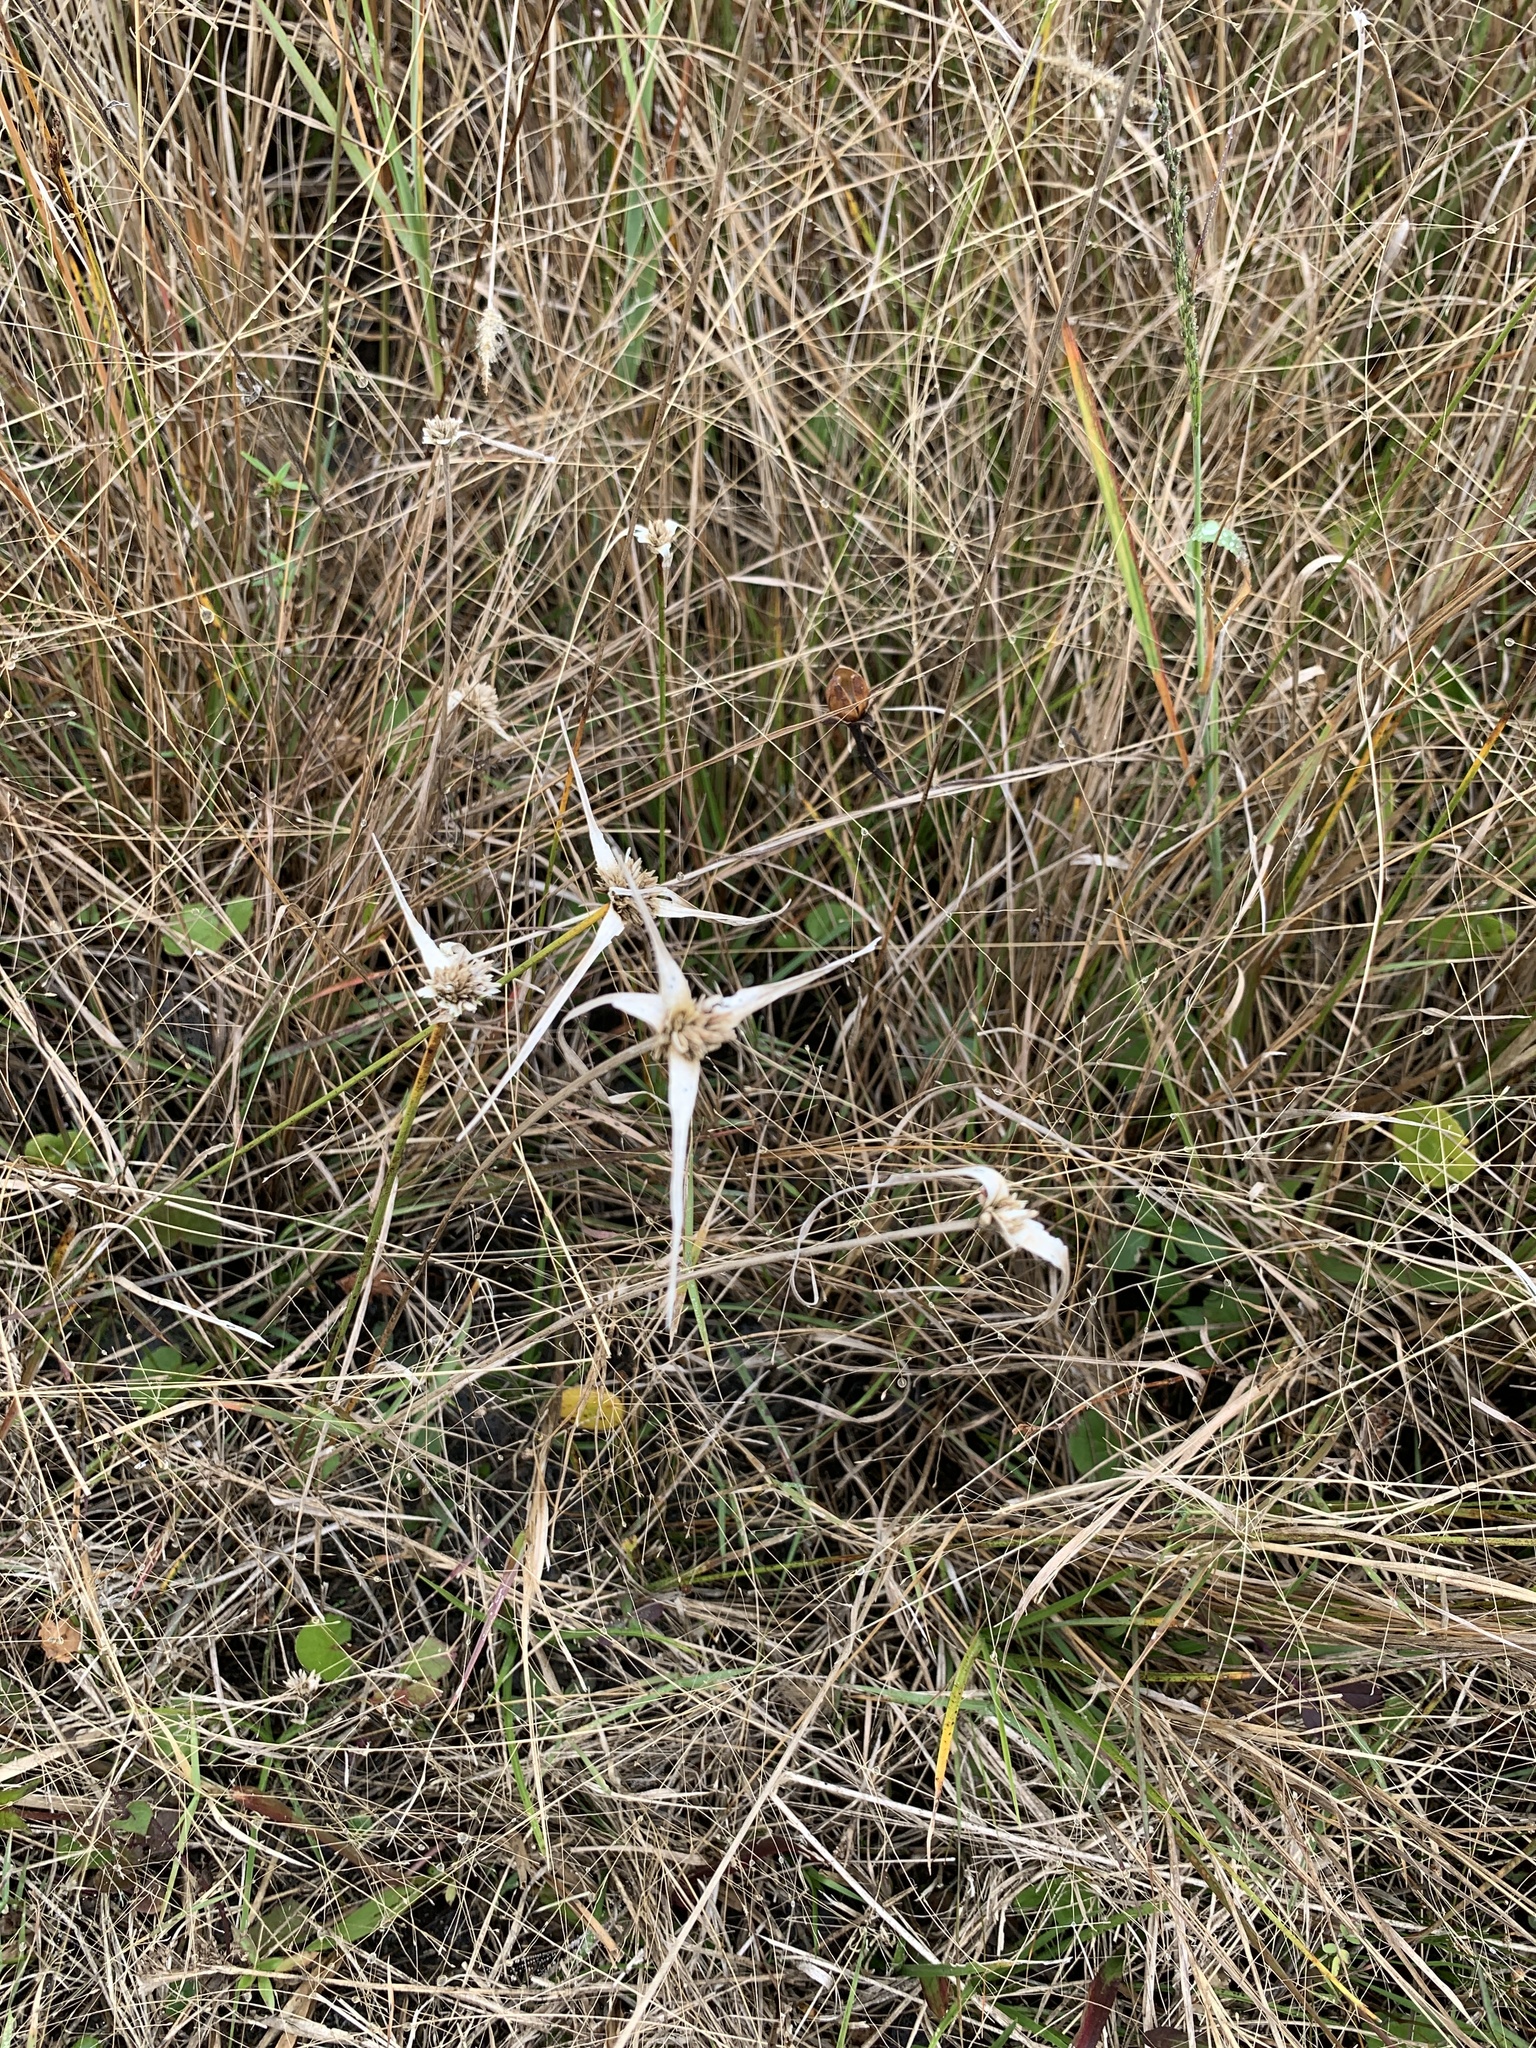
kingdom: Plantae
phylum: Tracheophyta
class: Liliopsida
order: Poales
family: Cyperaceae
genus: Rhynchospora
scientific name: Rhynchospora colorata
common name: Star sedge
